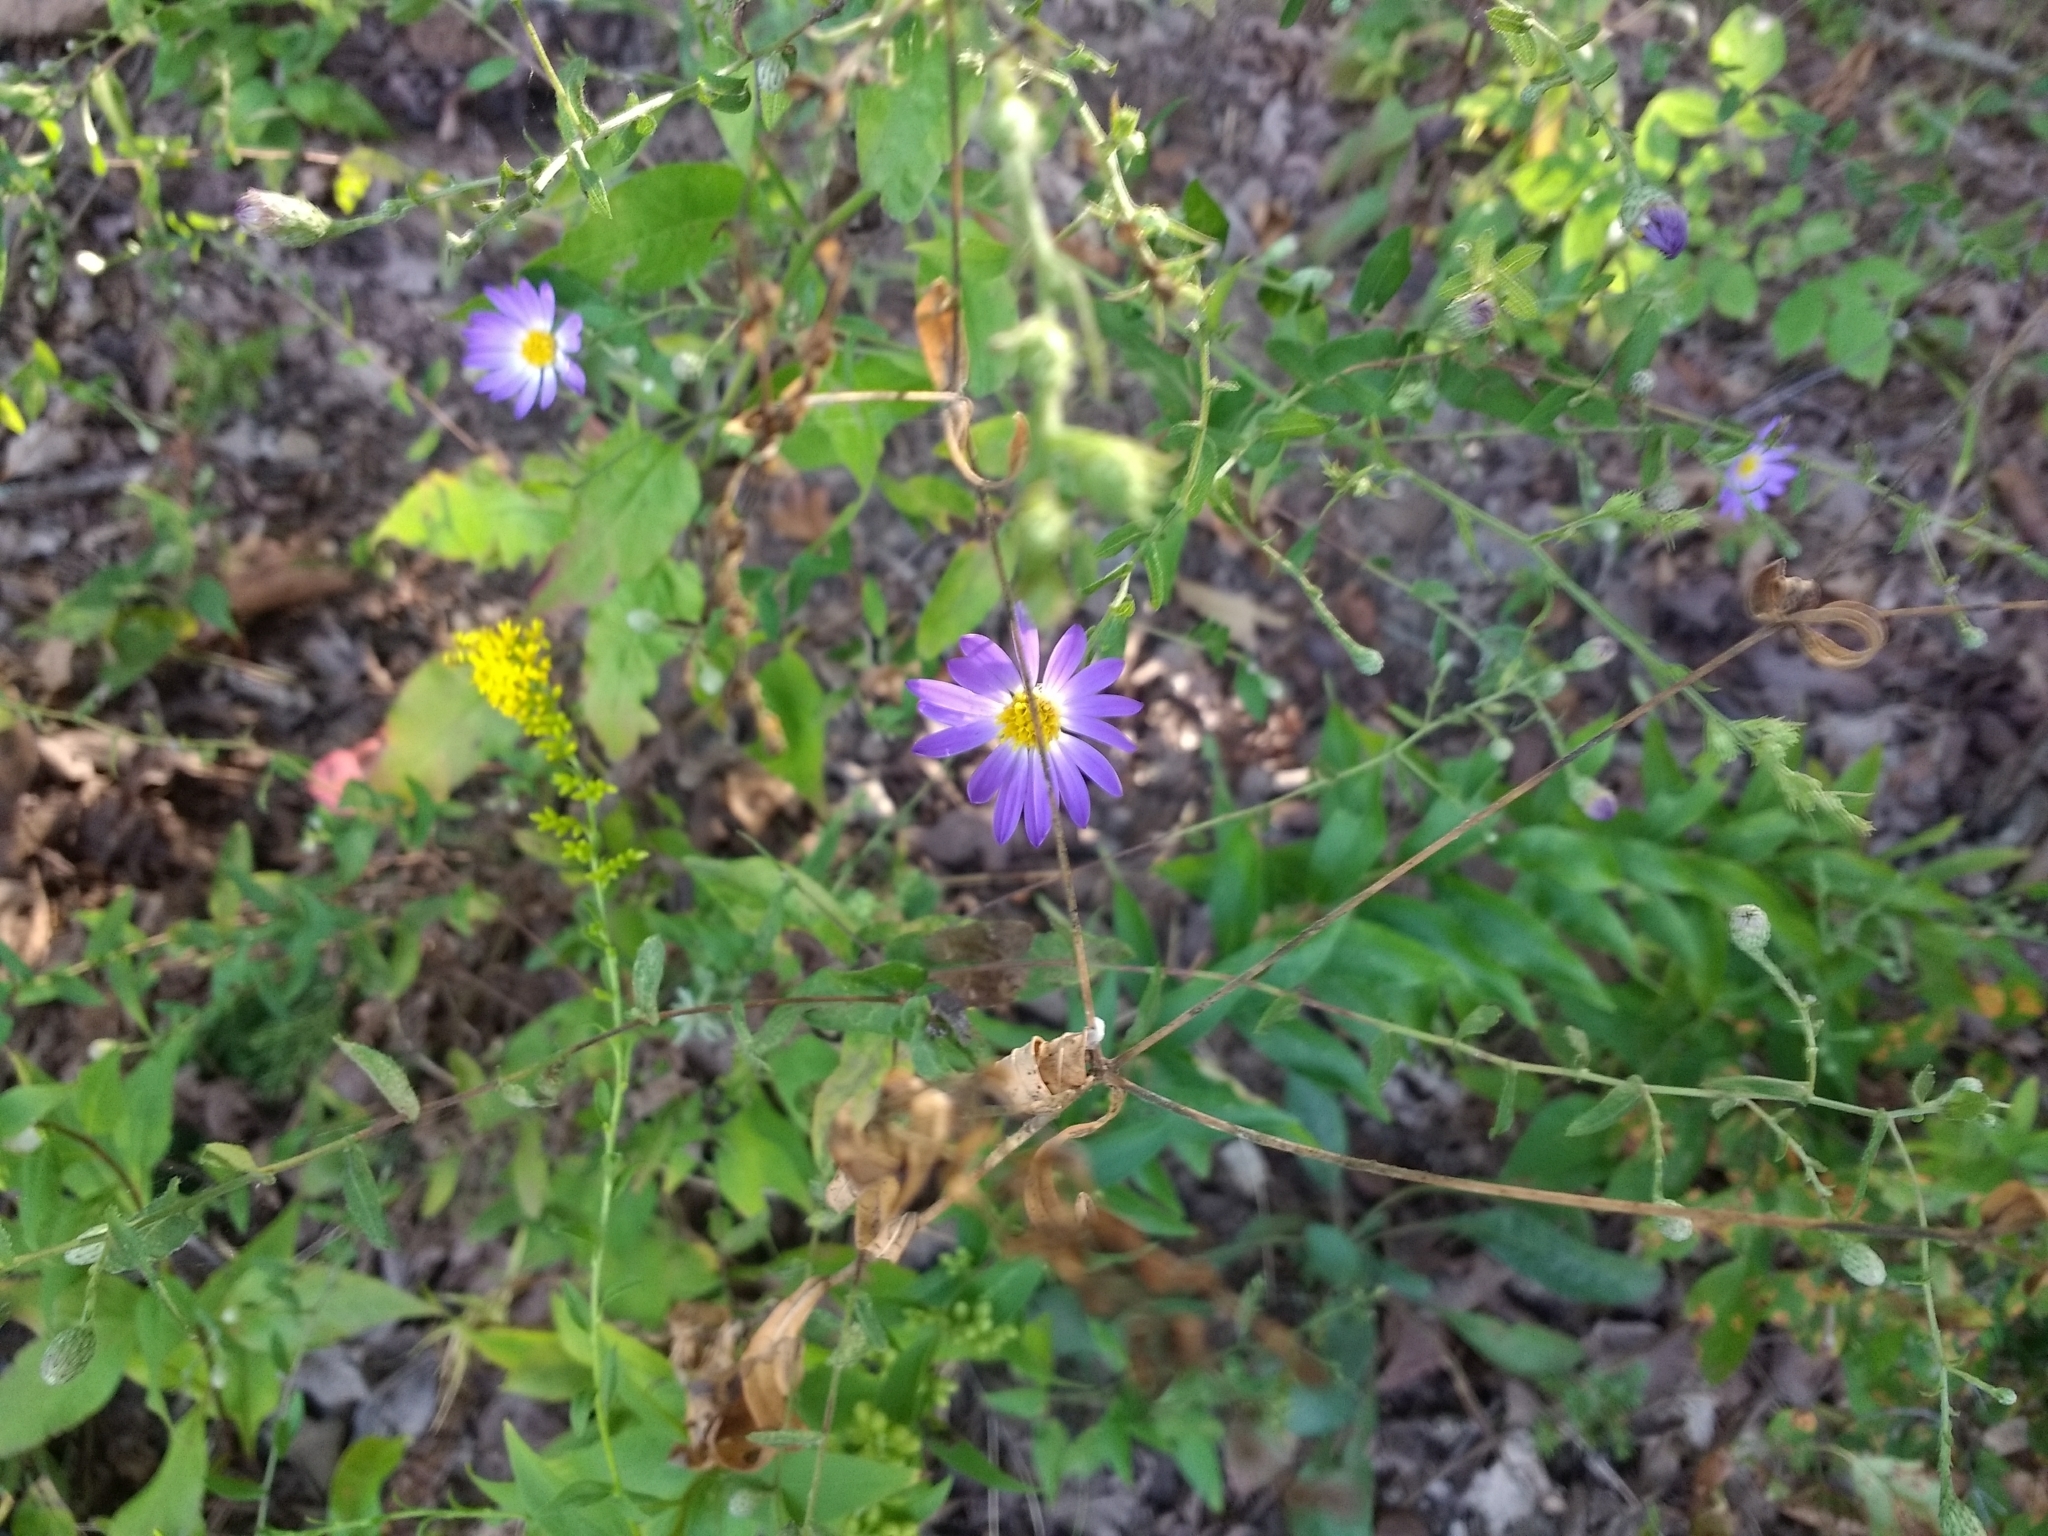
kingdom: Plantae
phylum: Tracheophyta
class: Magnoliopsida
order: Asterales
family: Asteraceae
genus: Symphyotrichum
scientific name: Symphyotrichum patens
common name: Late purple aster
